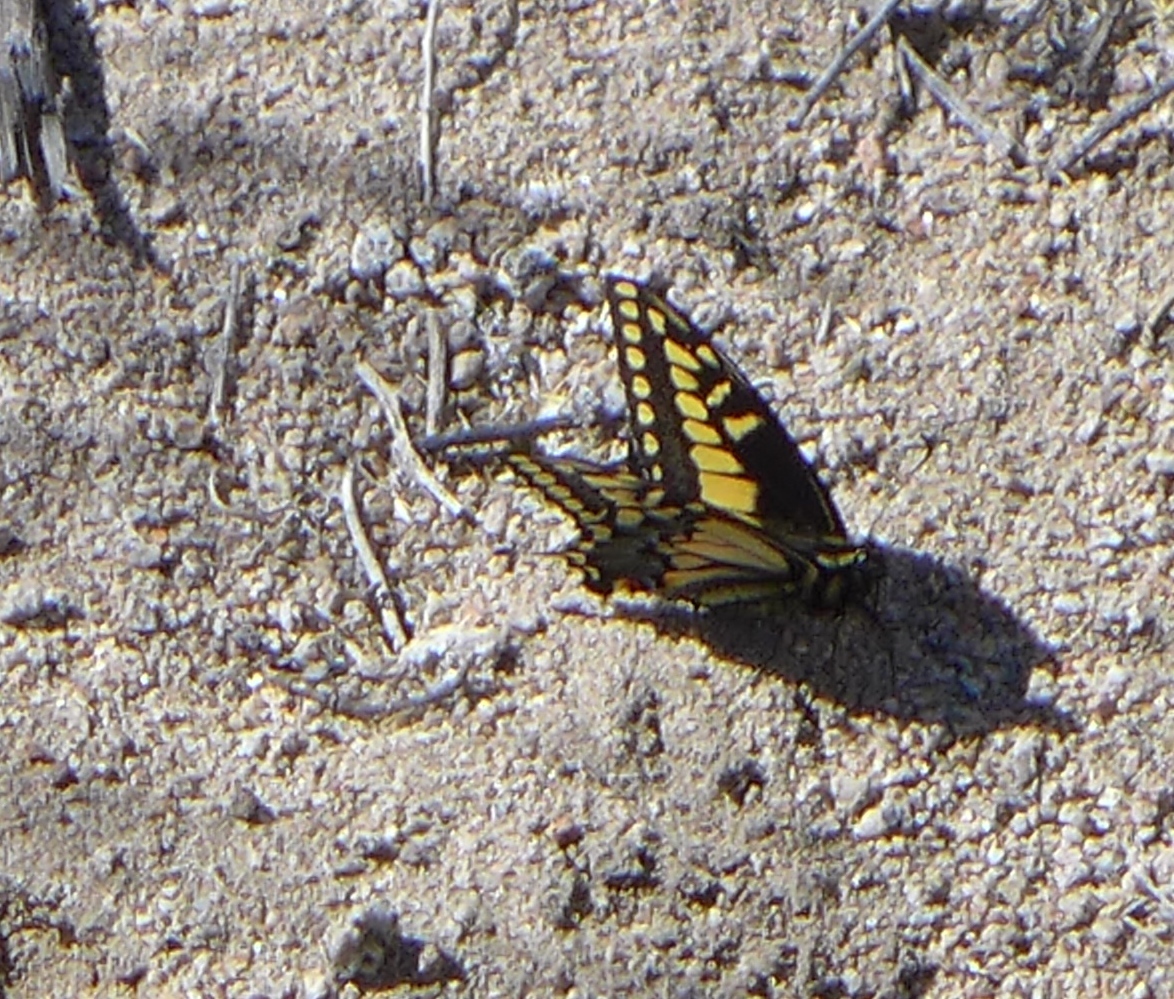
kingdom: Animalia
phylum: Arthropoda
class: Insecta
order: Lepidoptera
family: Papilionidae
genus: Papilio
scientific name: Papilio polyxenes
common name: Black swallowtail
